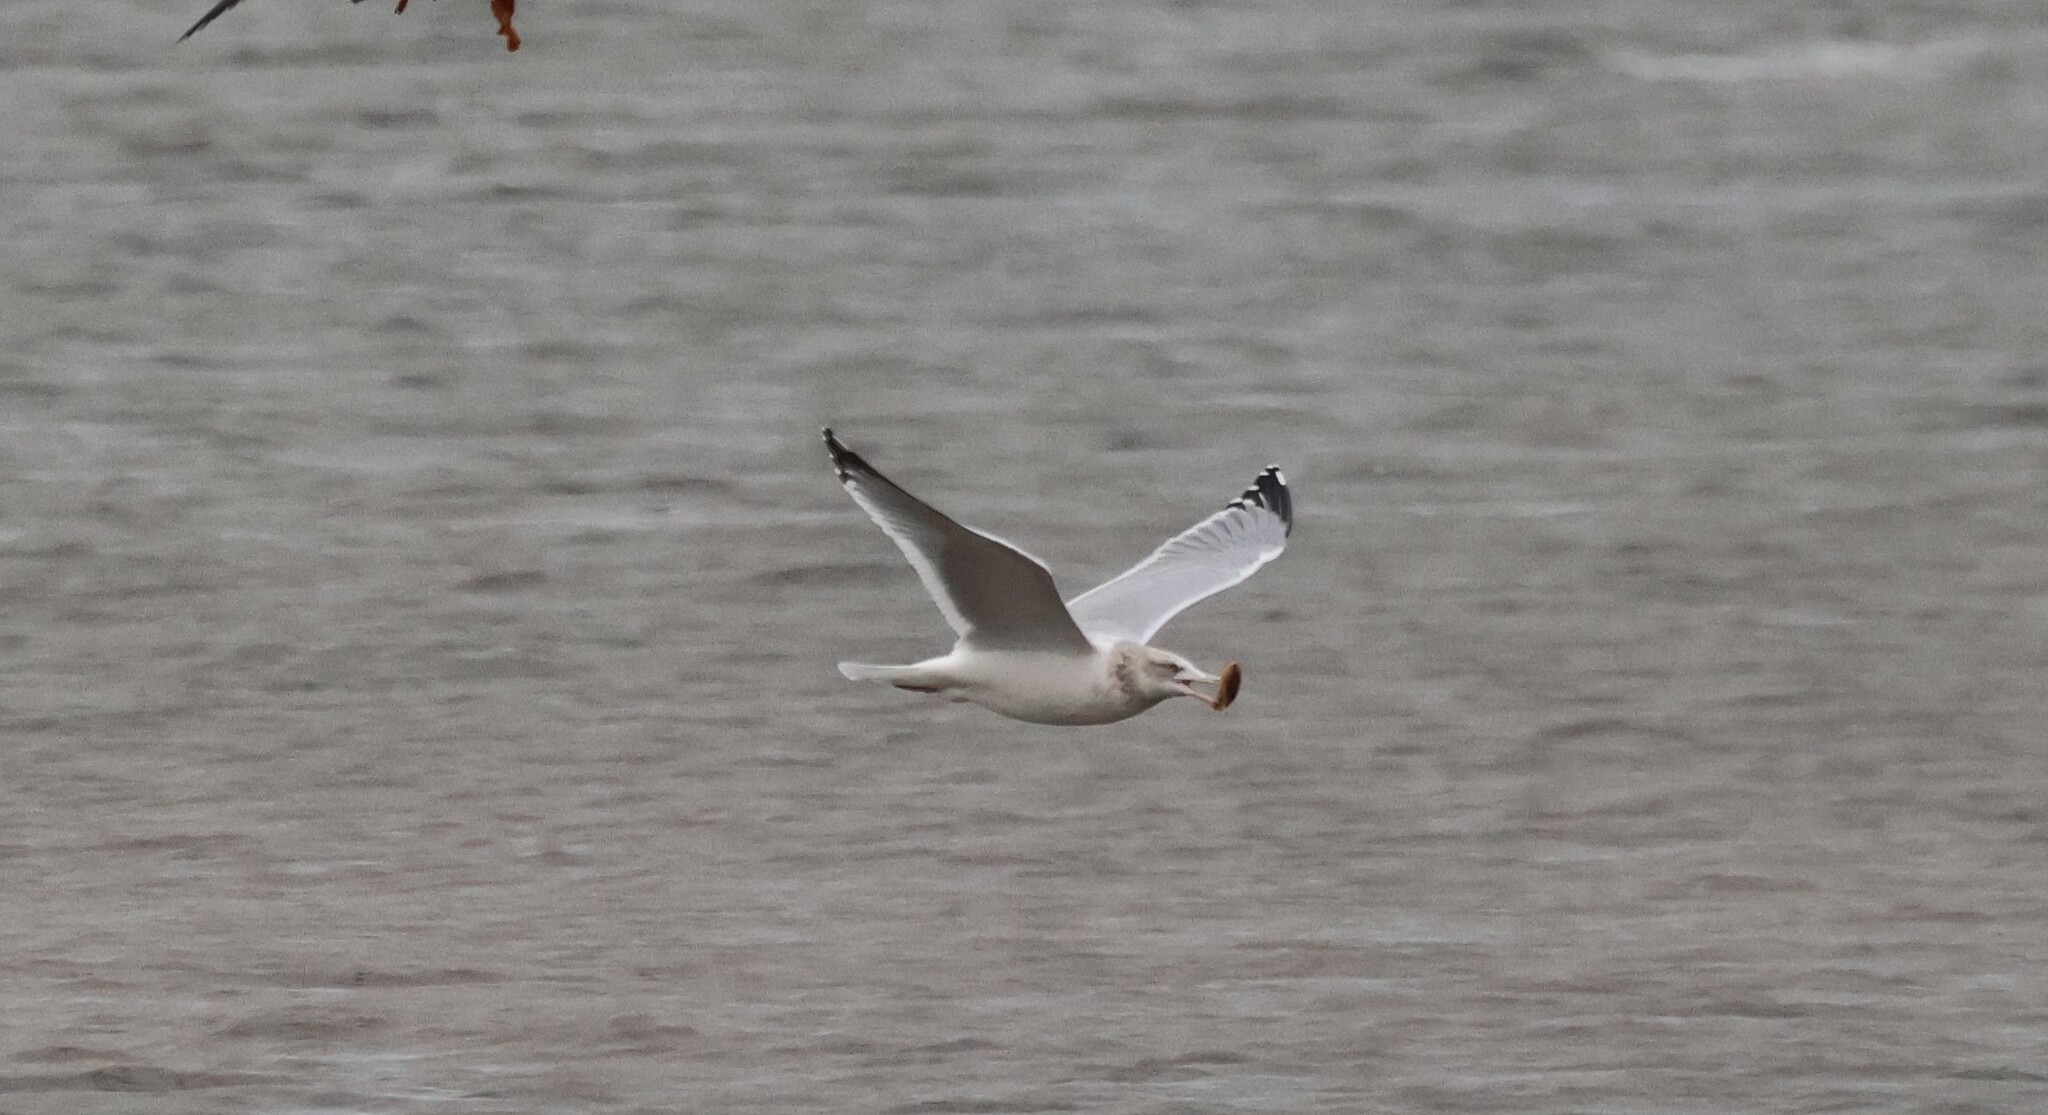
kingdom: Animalia
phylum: Chordata
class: Aves
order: Charadriiformes
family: Laridae
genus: Larus
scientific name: Larus argentatus
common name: Herring gull
